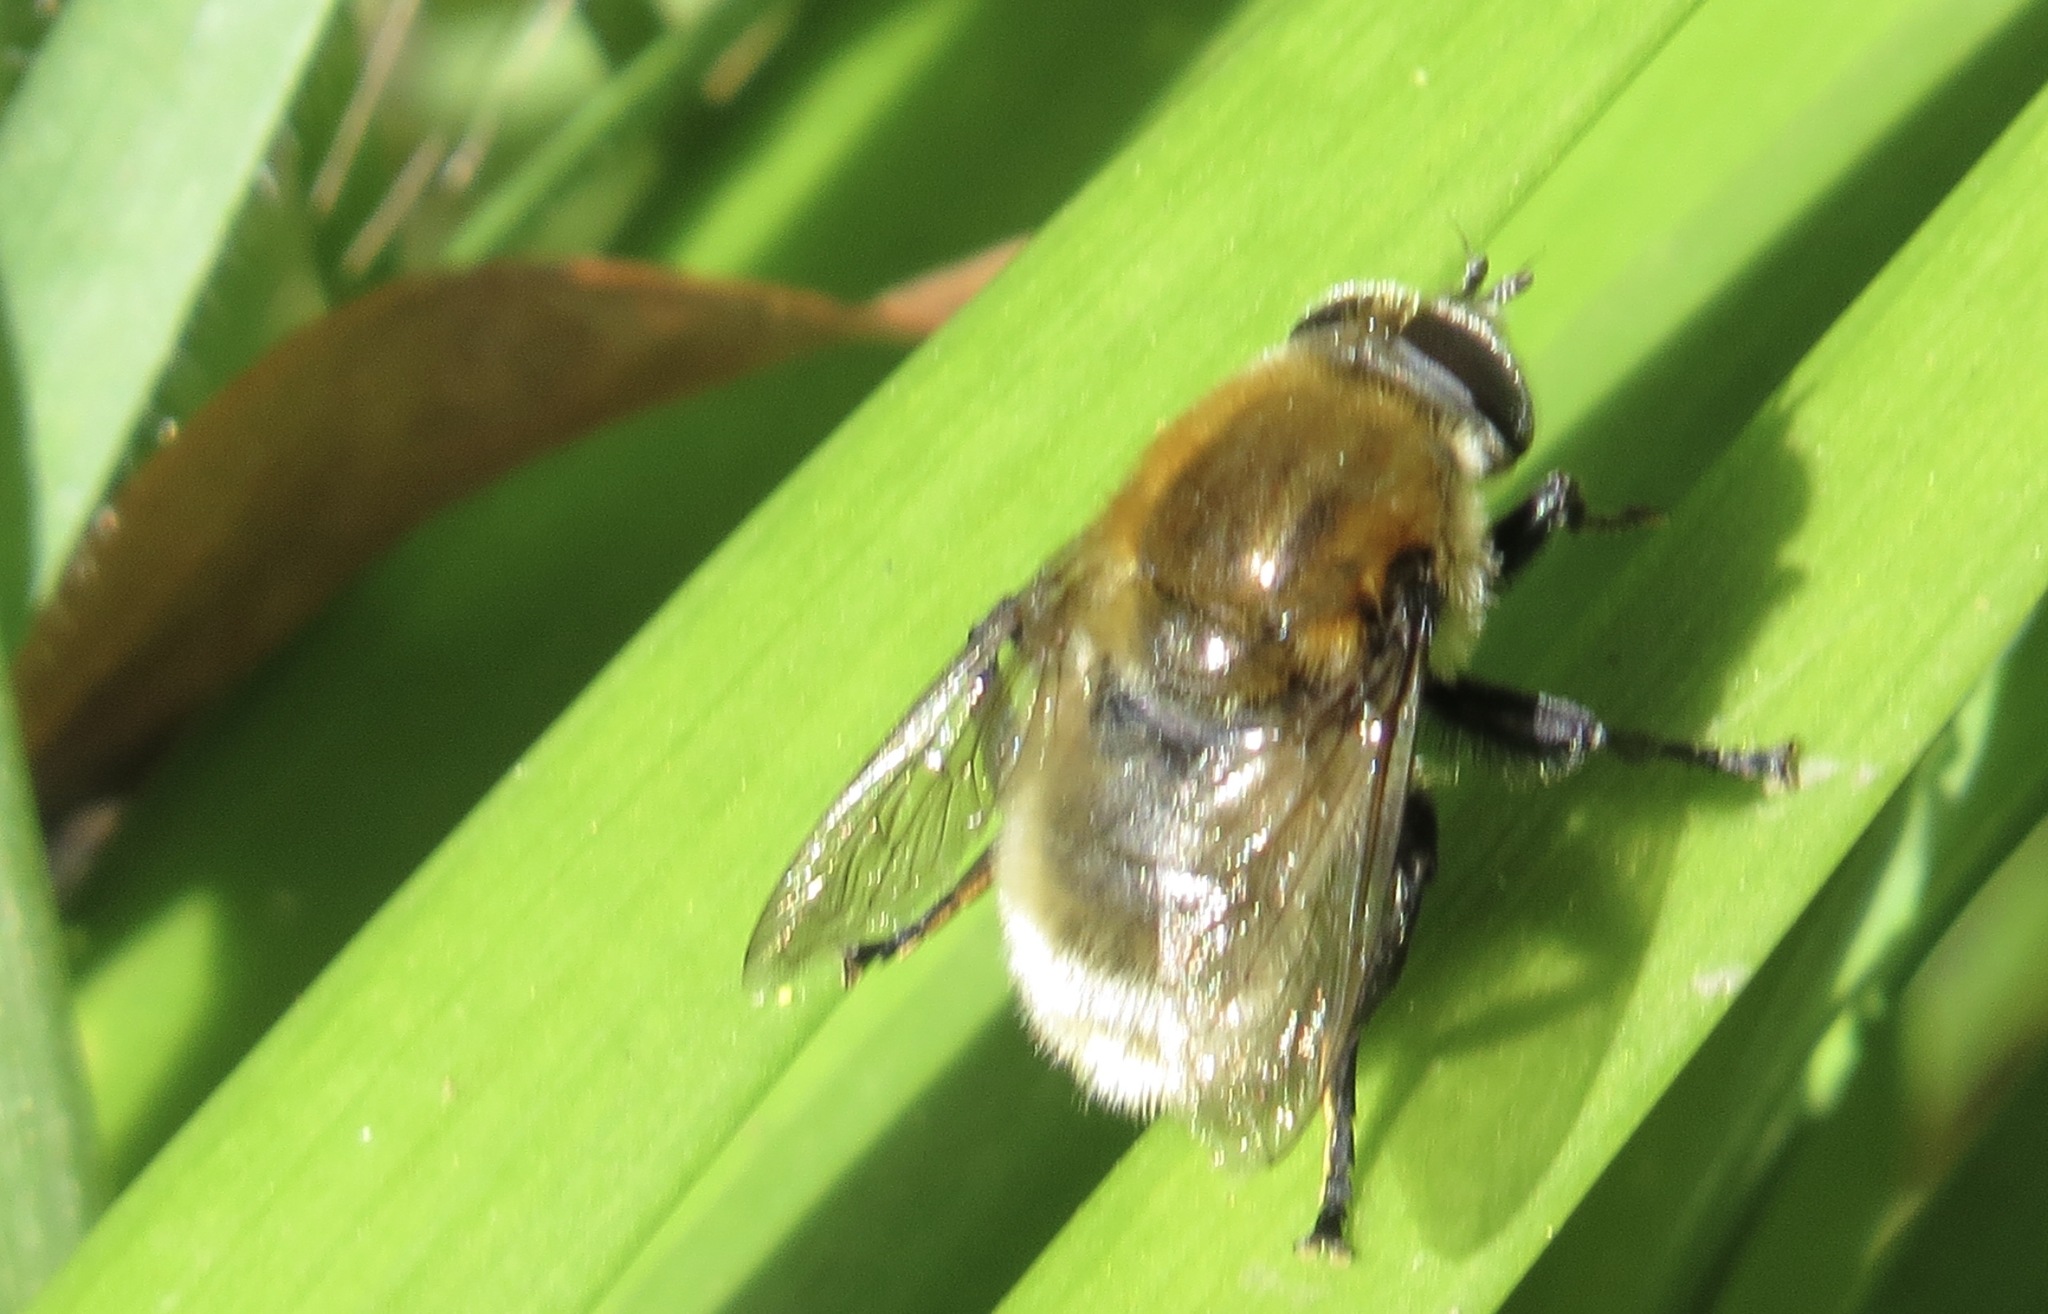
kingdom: Animalia
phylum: Arthropoda
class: Insecta
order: Diptera
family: Syrphidae
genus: Merodon
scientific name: Merodon equestris
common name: Greater bulb-fly
